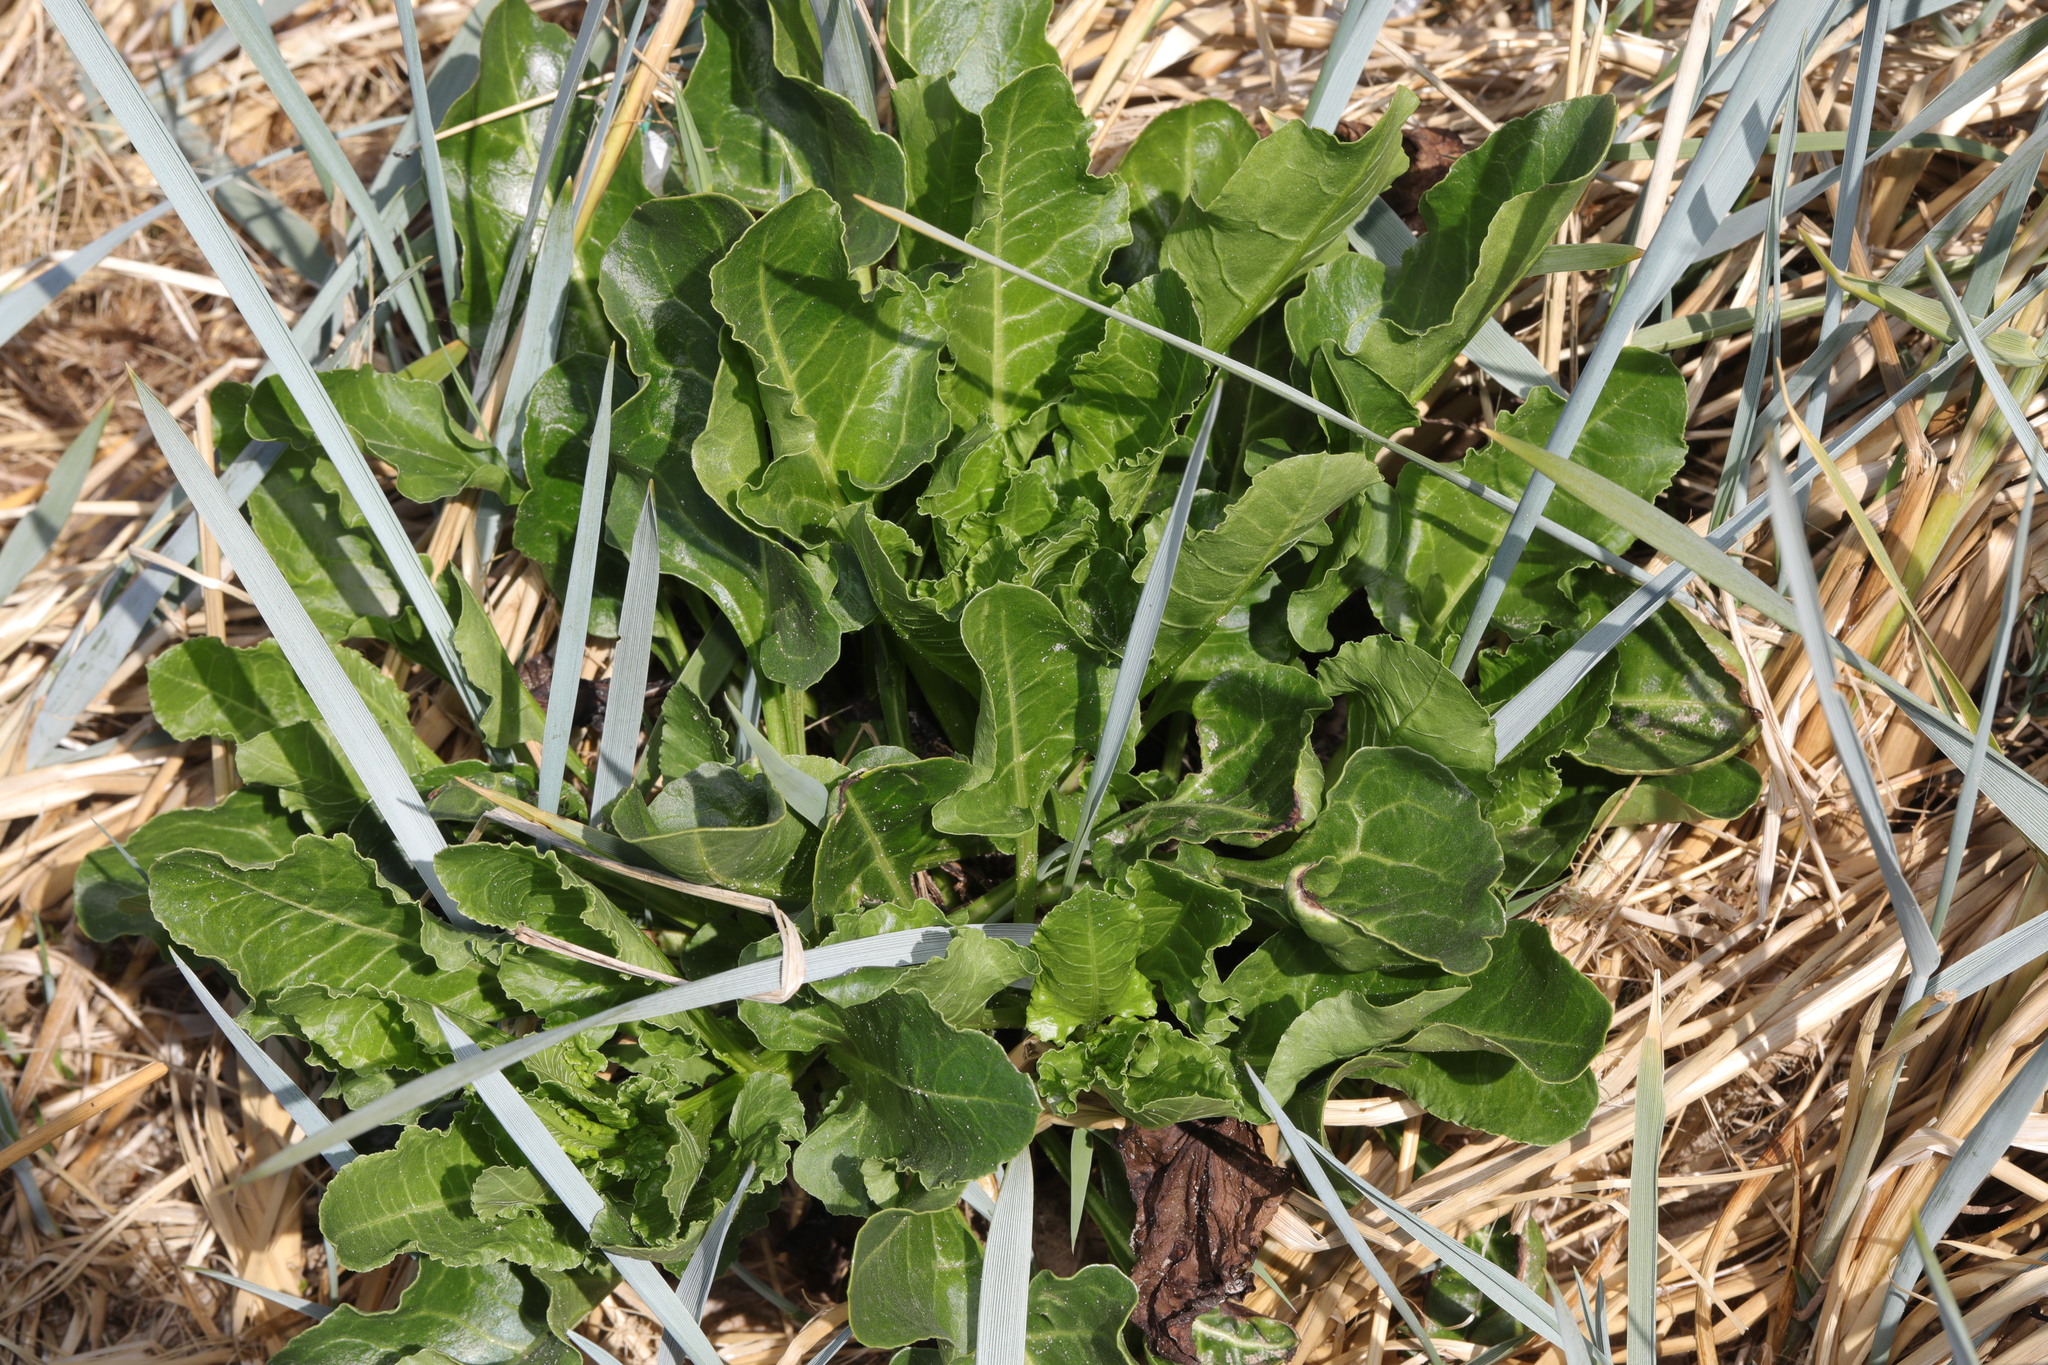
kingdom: Plantae
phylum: Tracheophyta
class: Magnoliopsida
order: Caryophyllales
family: Amaranthaceae
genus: Beta
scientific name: Beta vulgaris
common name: Beet
